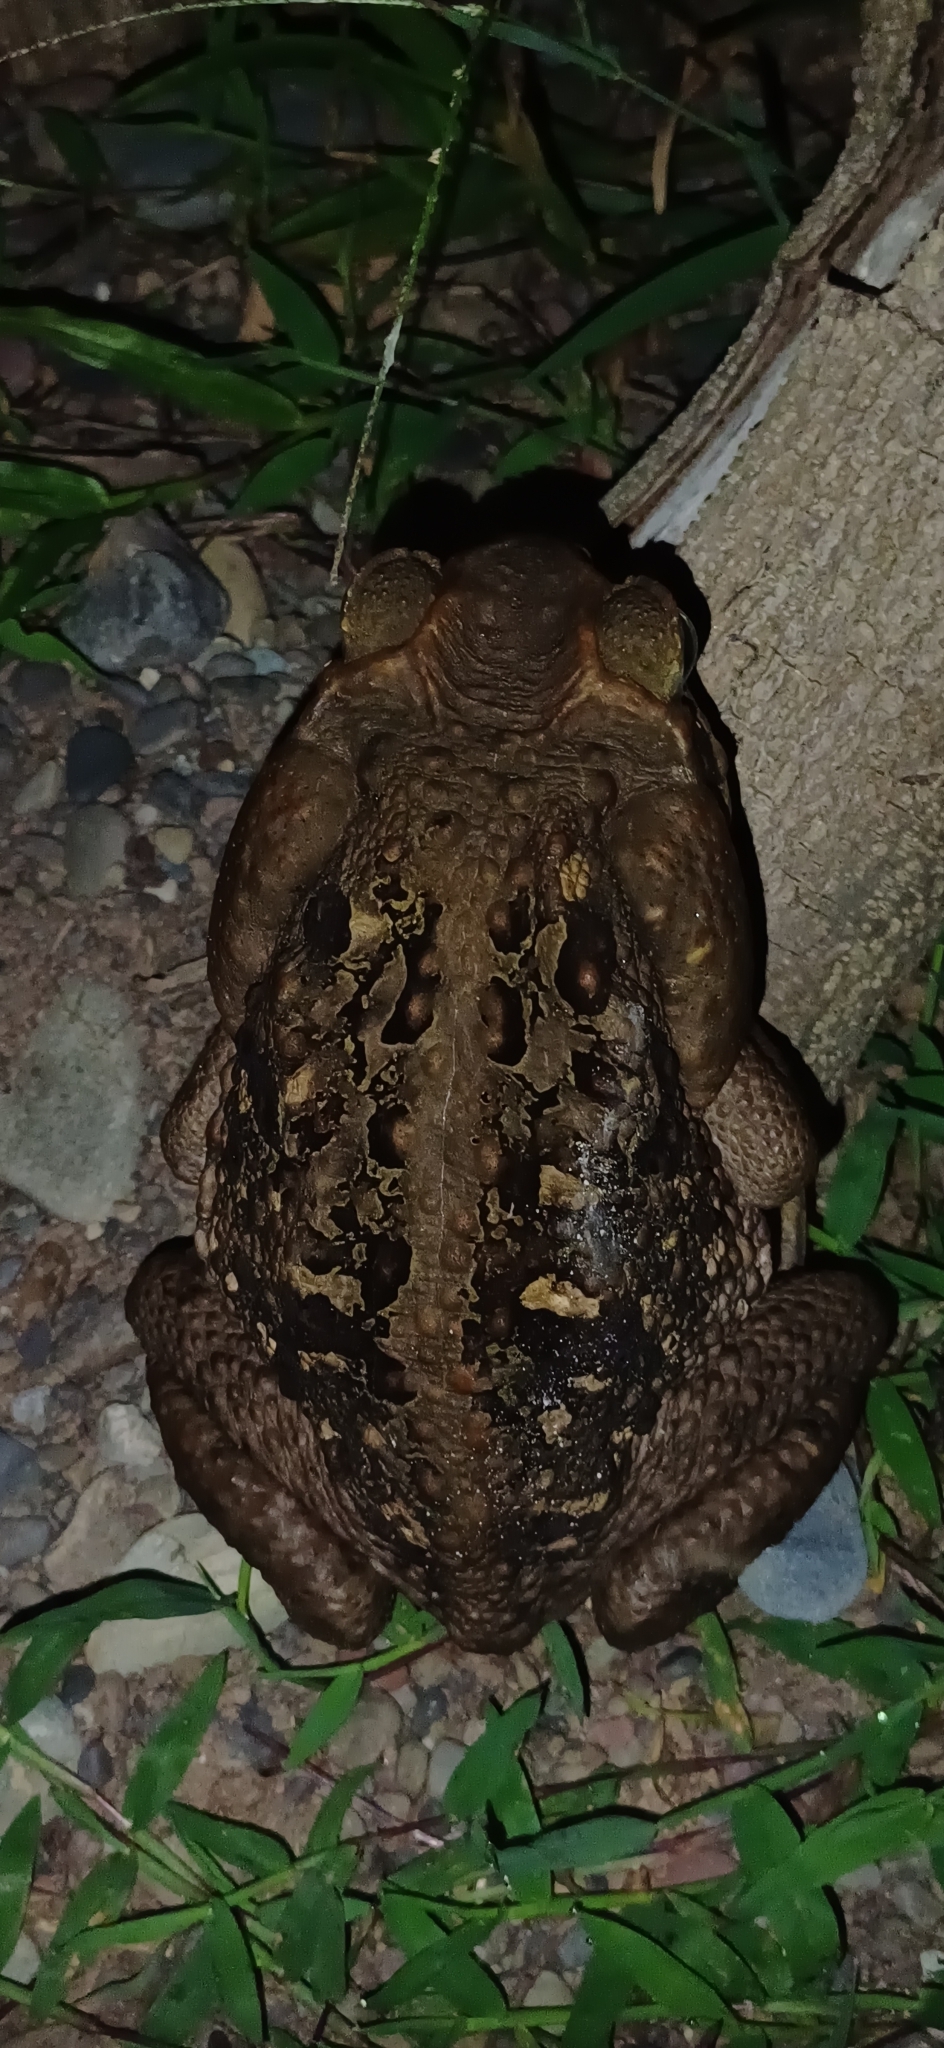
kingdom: Animalia
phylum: Chordata
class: Amphibia
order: Anura
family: Bufonidae
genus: Rhinella
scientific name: Rhinella marina
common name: Cane toad
